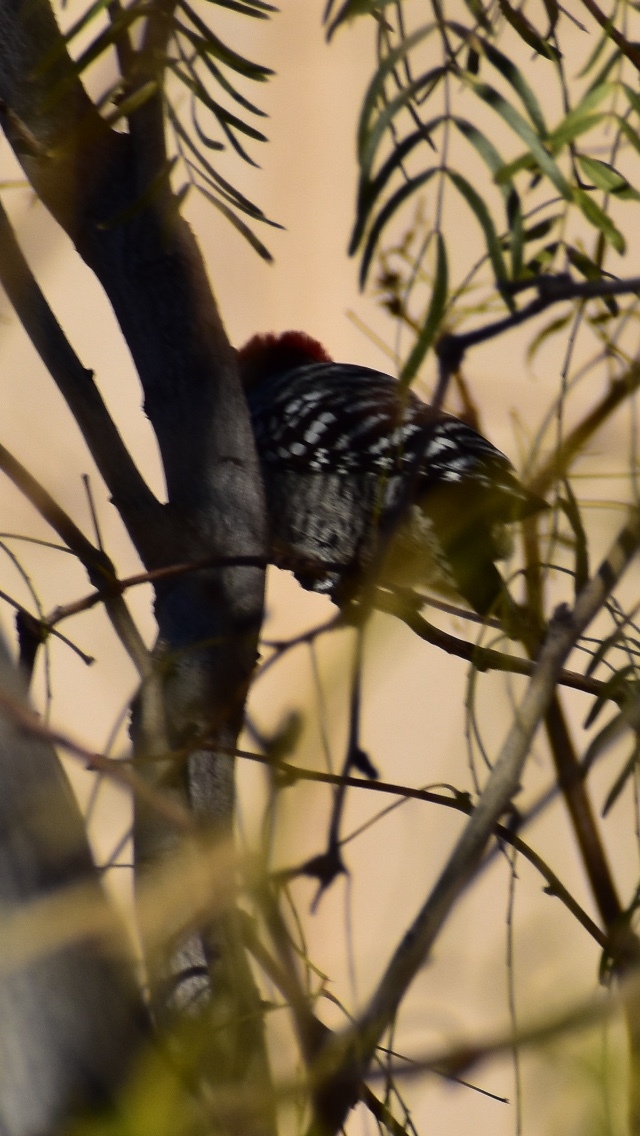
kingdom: Animalia
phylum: Chordata
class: Aves
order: Piciformes
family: Picidae
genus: Dryobates
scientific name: Dryobates scalaris
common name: Ladder-backed woodpecker
